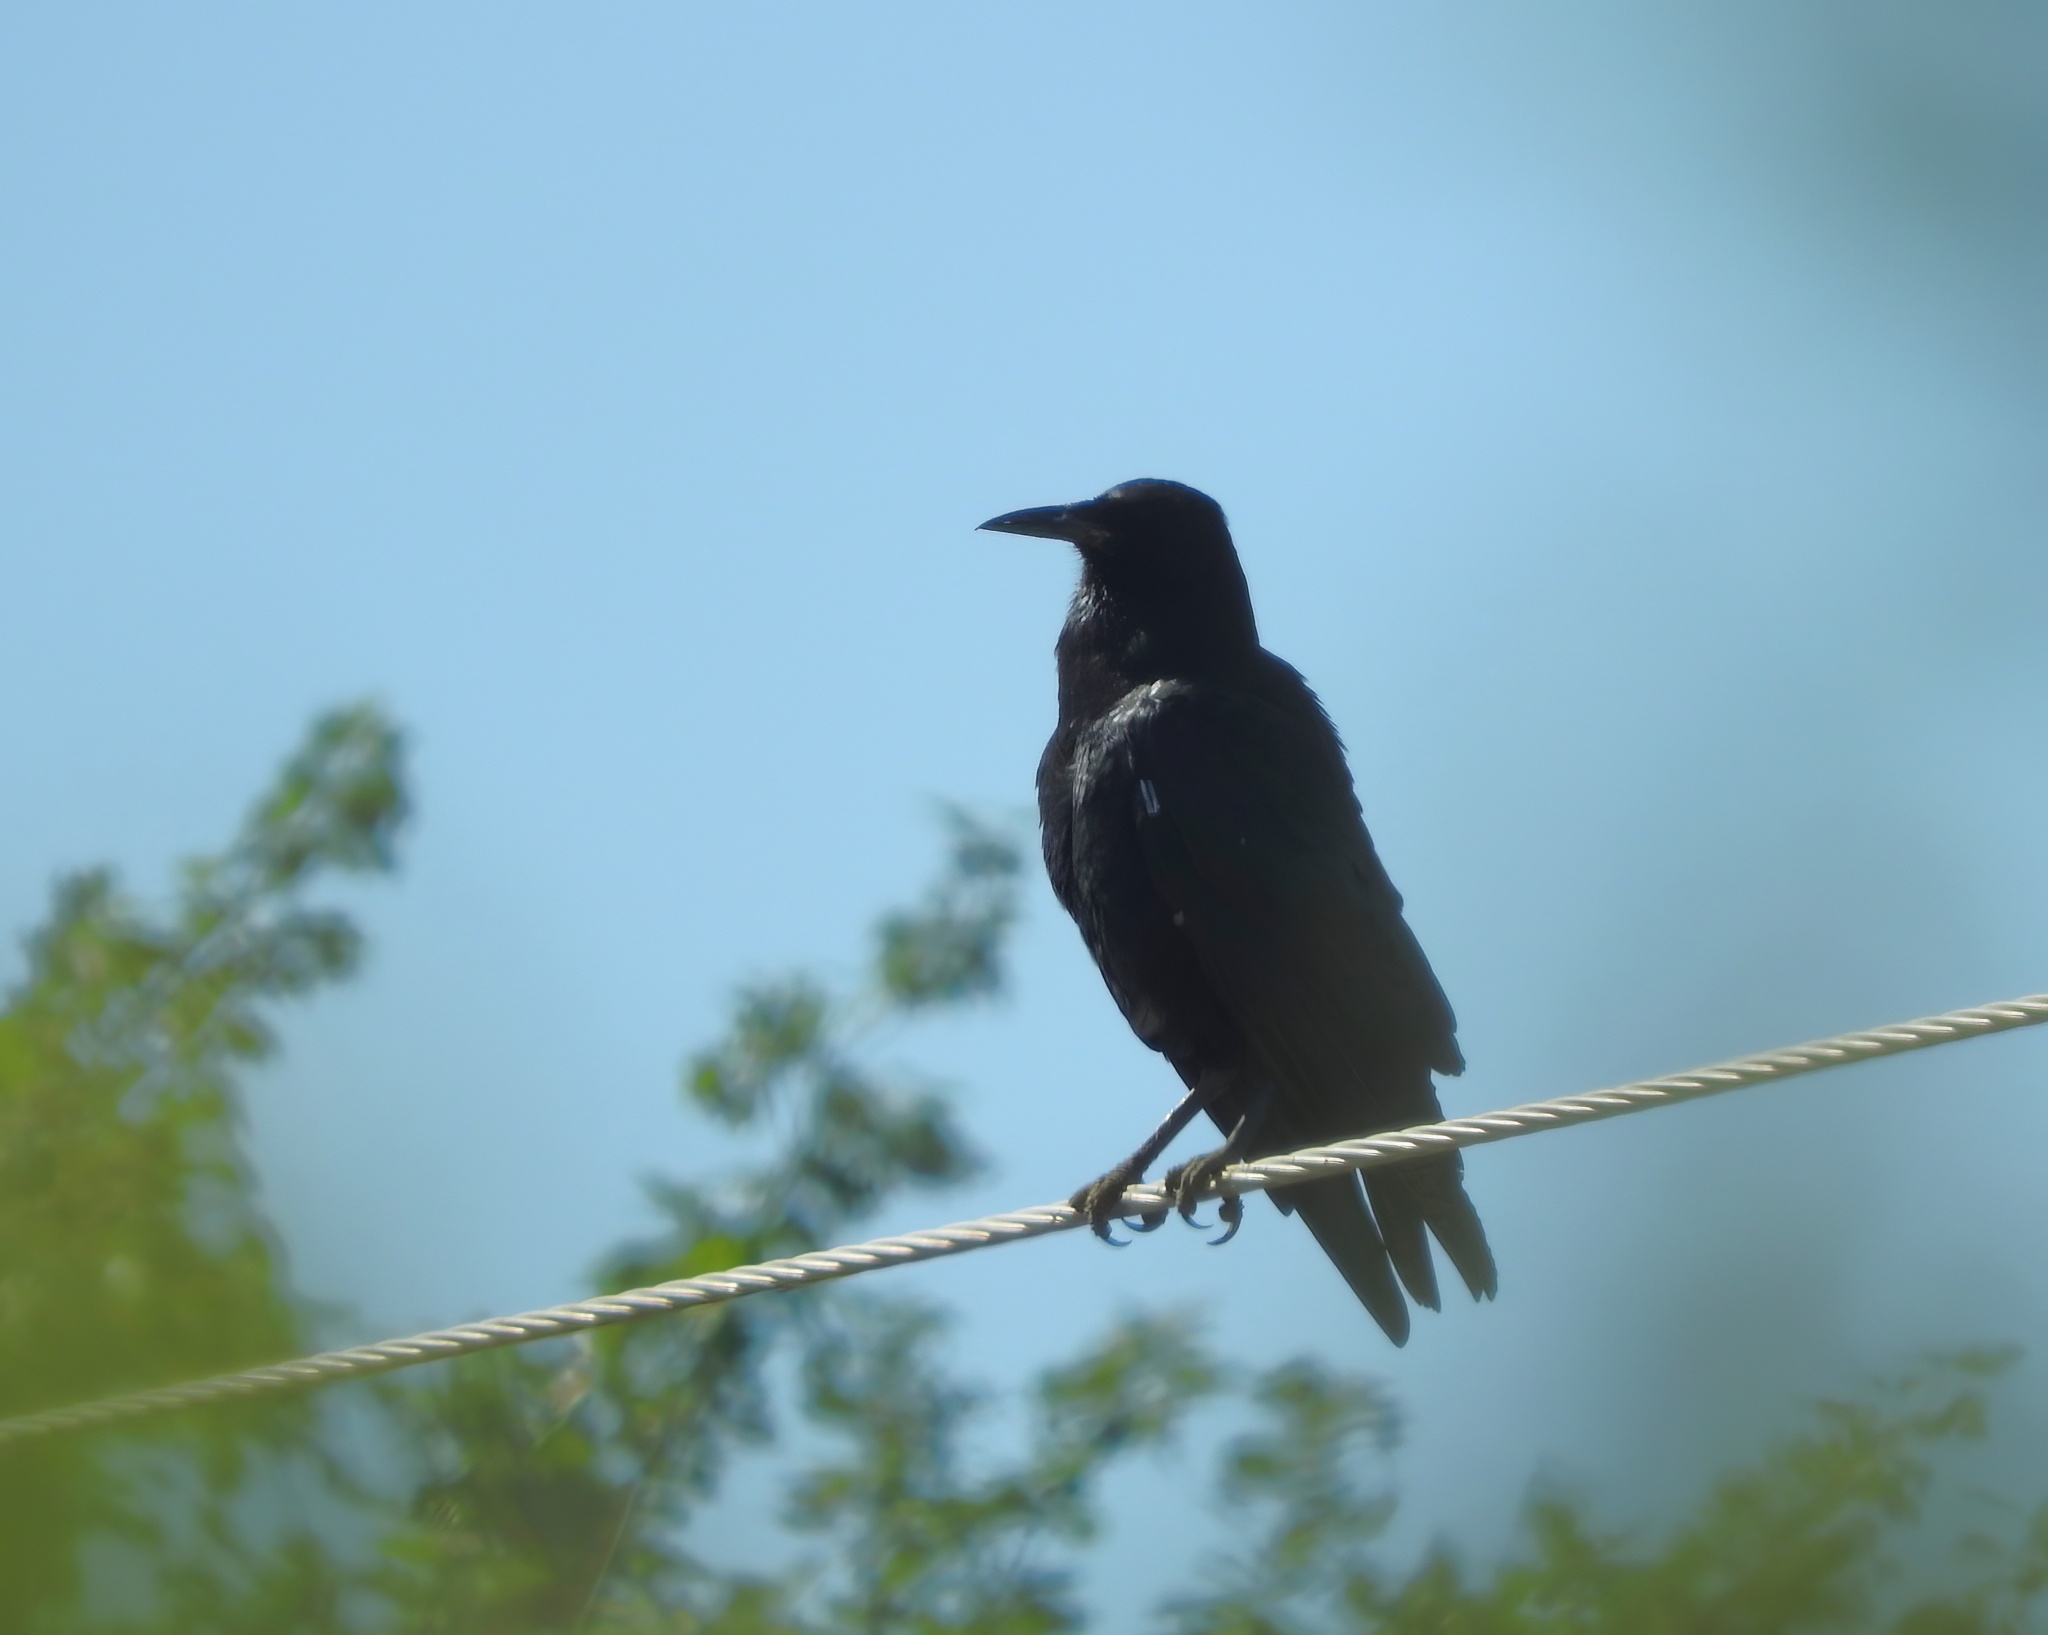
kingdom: Animalia
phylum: Chordata
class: Aves
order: Passeriformes
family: Corvidae
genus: Corvus
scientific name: Corvus capensis
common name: Cape crow
